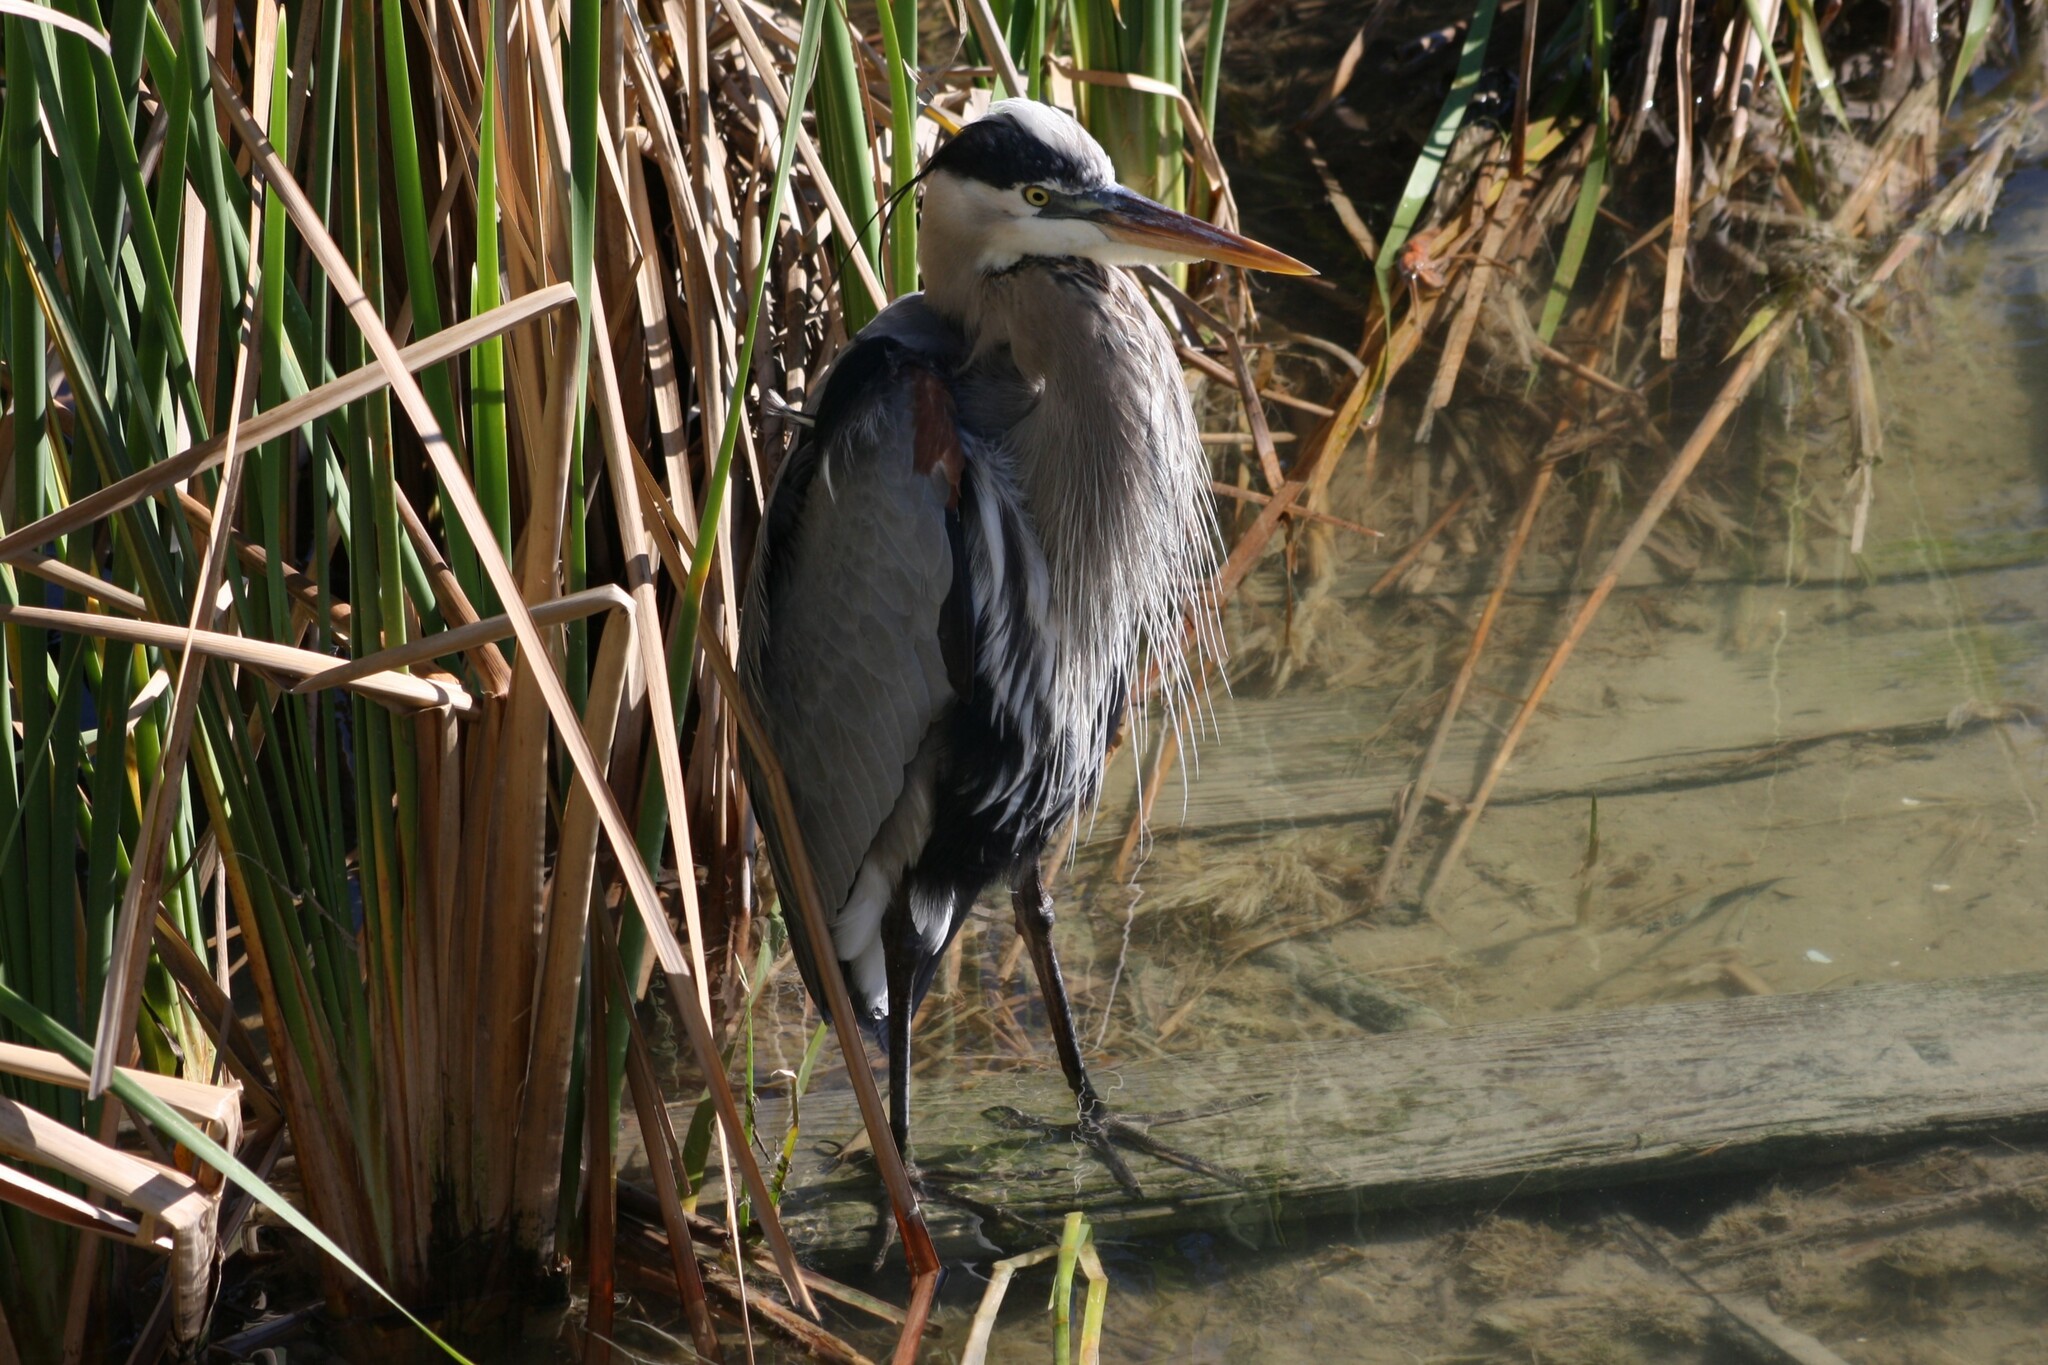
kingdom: Animalia
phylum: Chordata
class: Aves
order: Pelecaniformes
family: Ardeidae
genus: Ardea
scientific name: Ardea herodias
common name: Great blue heron
